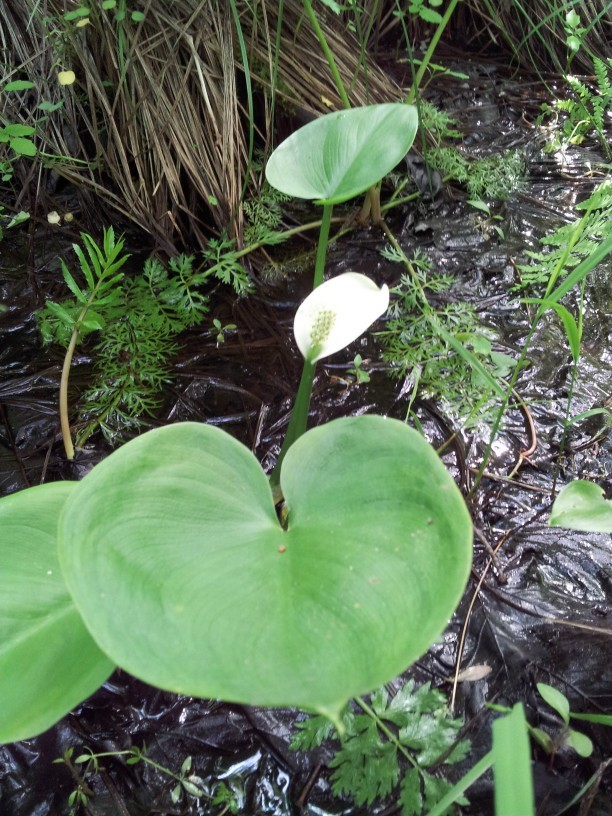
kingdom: Plantae
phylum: Tracheophyta
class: Liliopsida
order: Alismatales
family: Araceae
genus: Calla
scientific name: Calla palustris
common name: Bog arum
